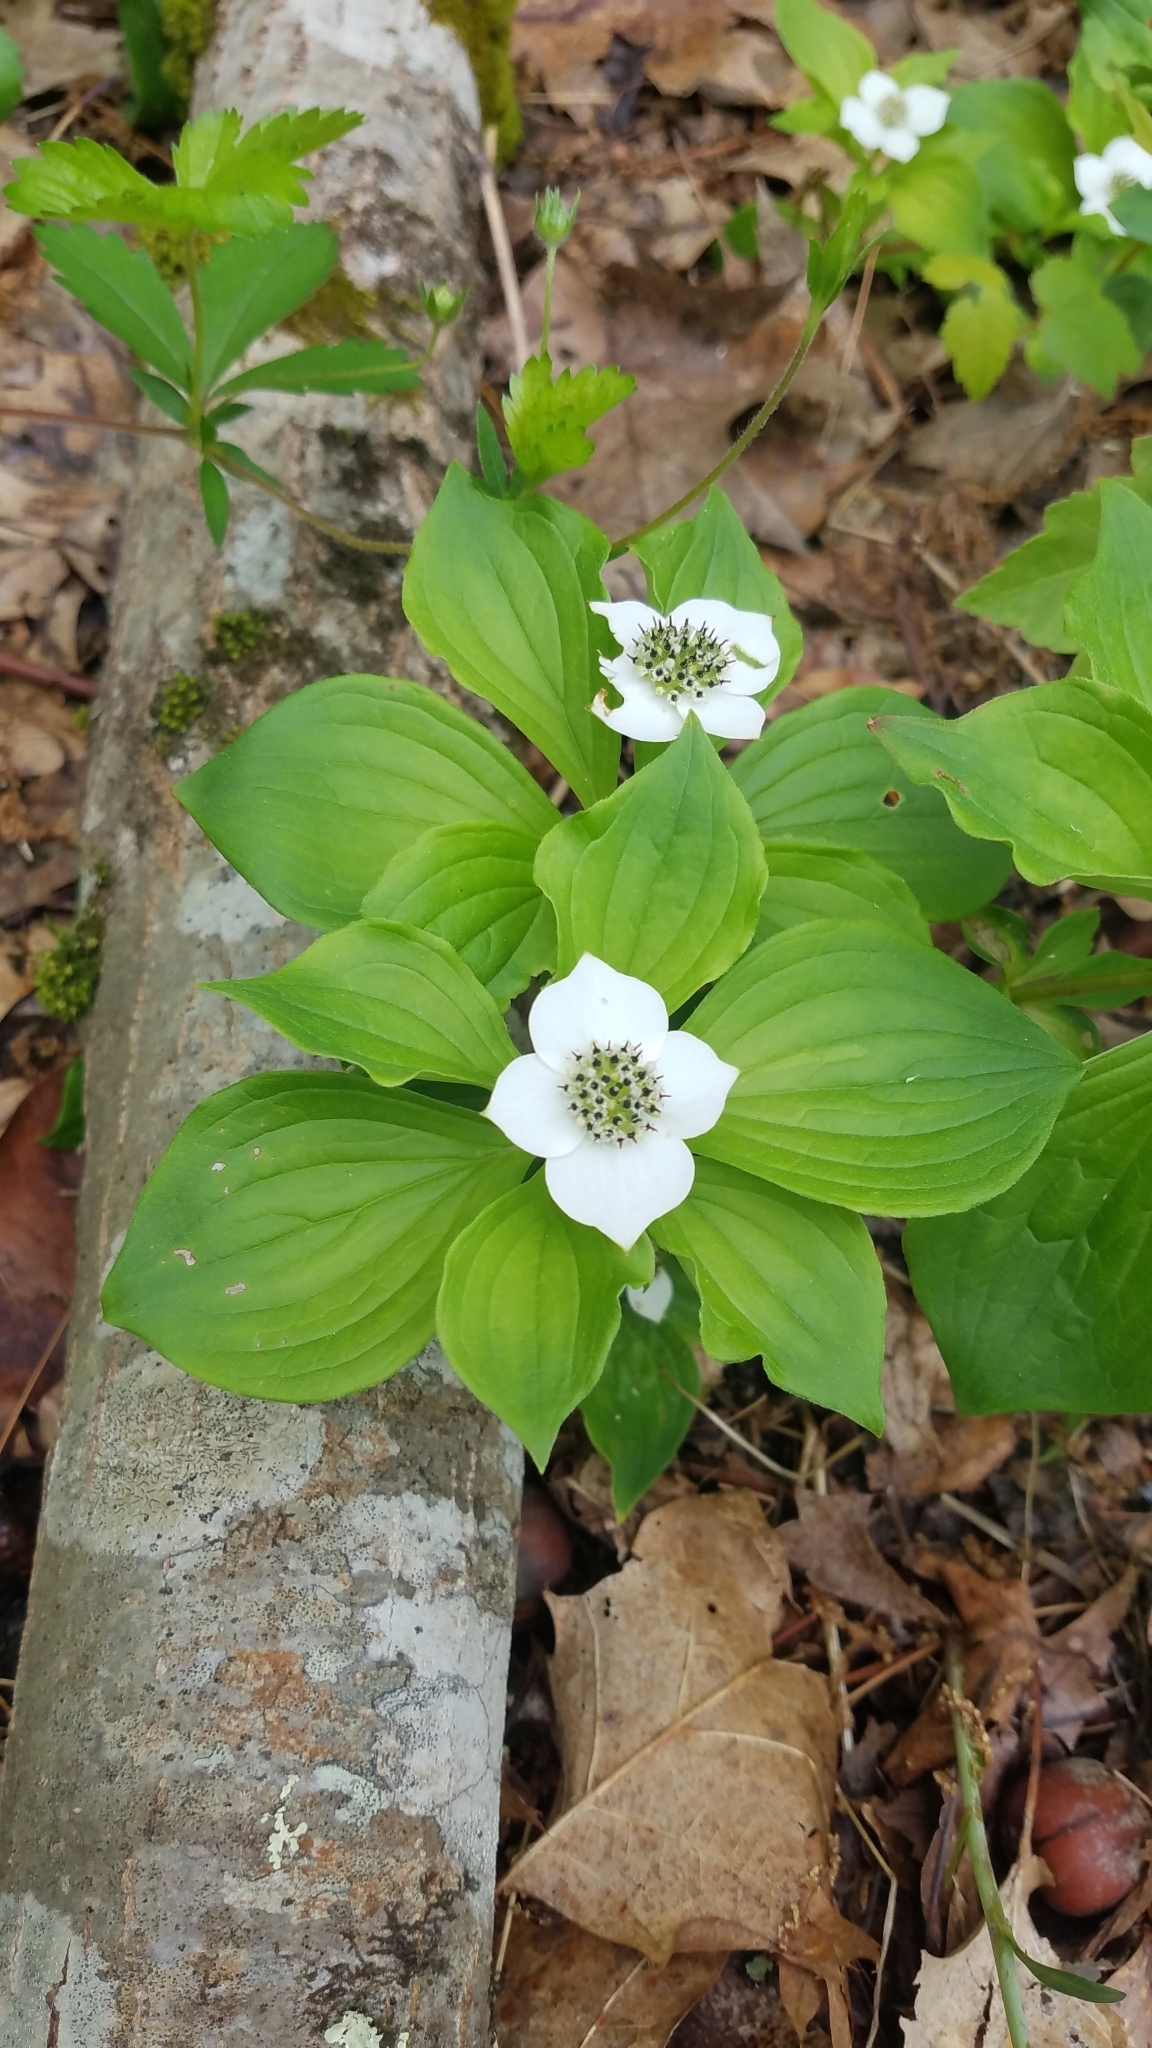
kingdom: Plantae
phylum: Tracheophyta
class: Magnoliopsida
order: Cornales
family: Cornaceae
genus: Cornus
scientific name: Cornus canadensis
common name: Creeping dogwood
